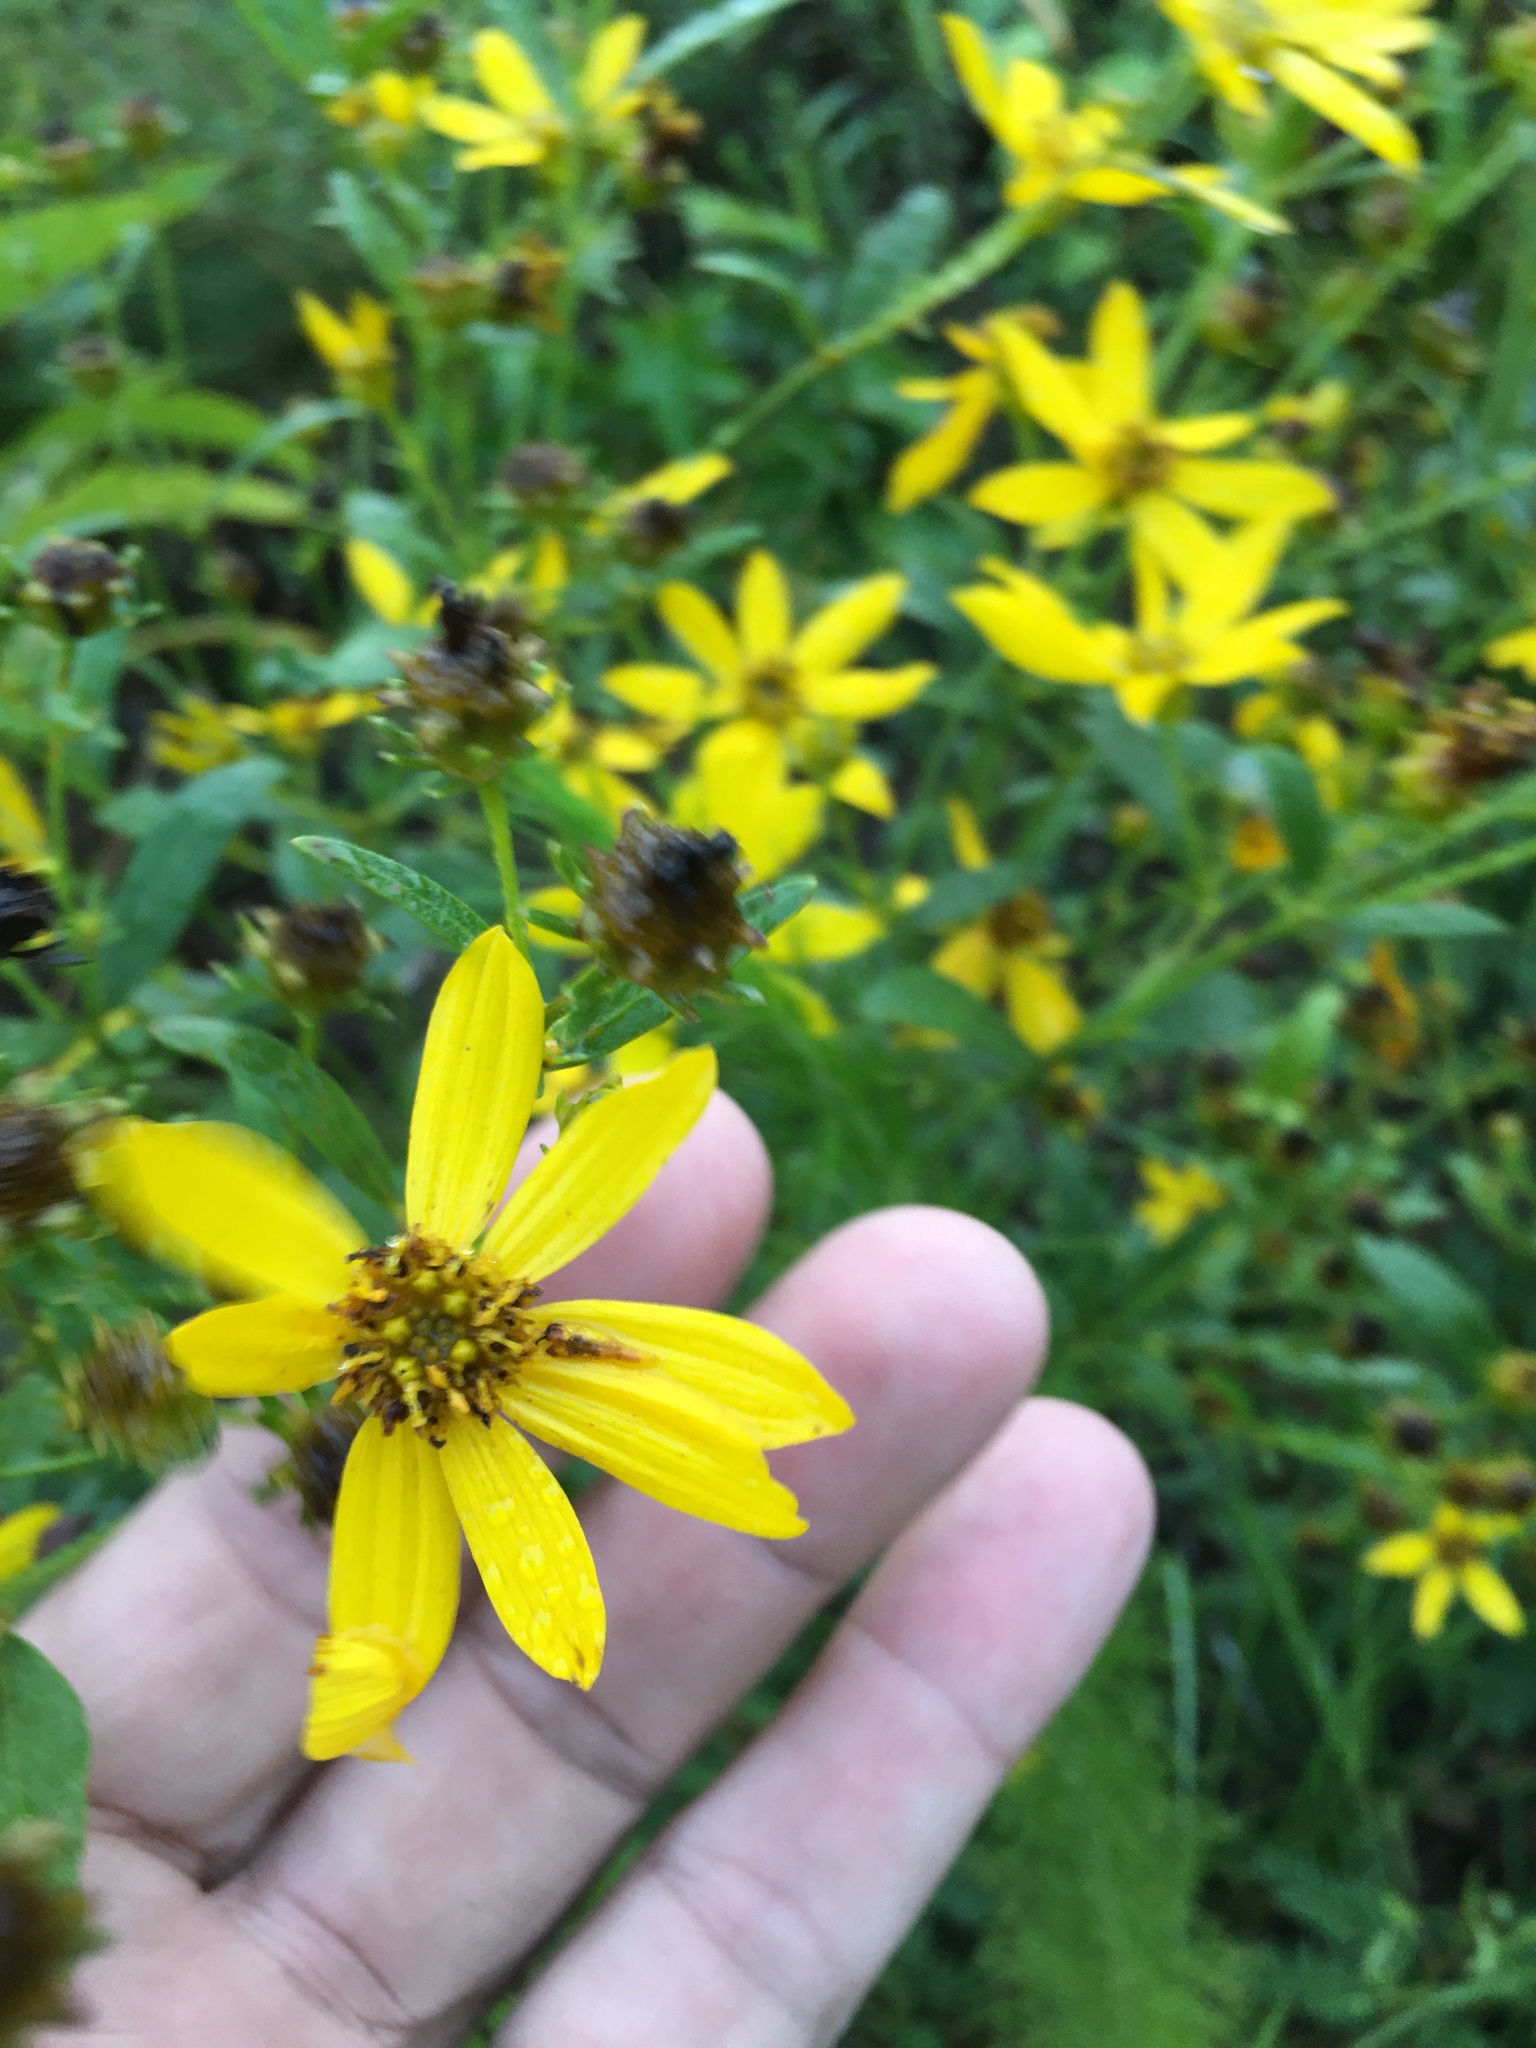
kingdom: Plantae
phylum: Tracheophyta
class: Magnoliopsida
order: Asterales
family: Asteraceae
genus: Coreopsis
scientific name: Coreopsis major
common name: Forest tickseed
